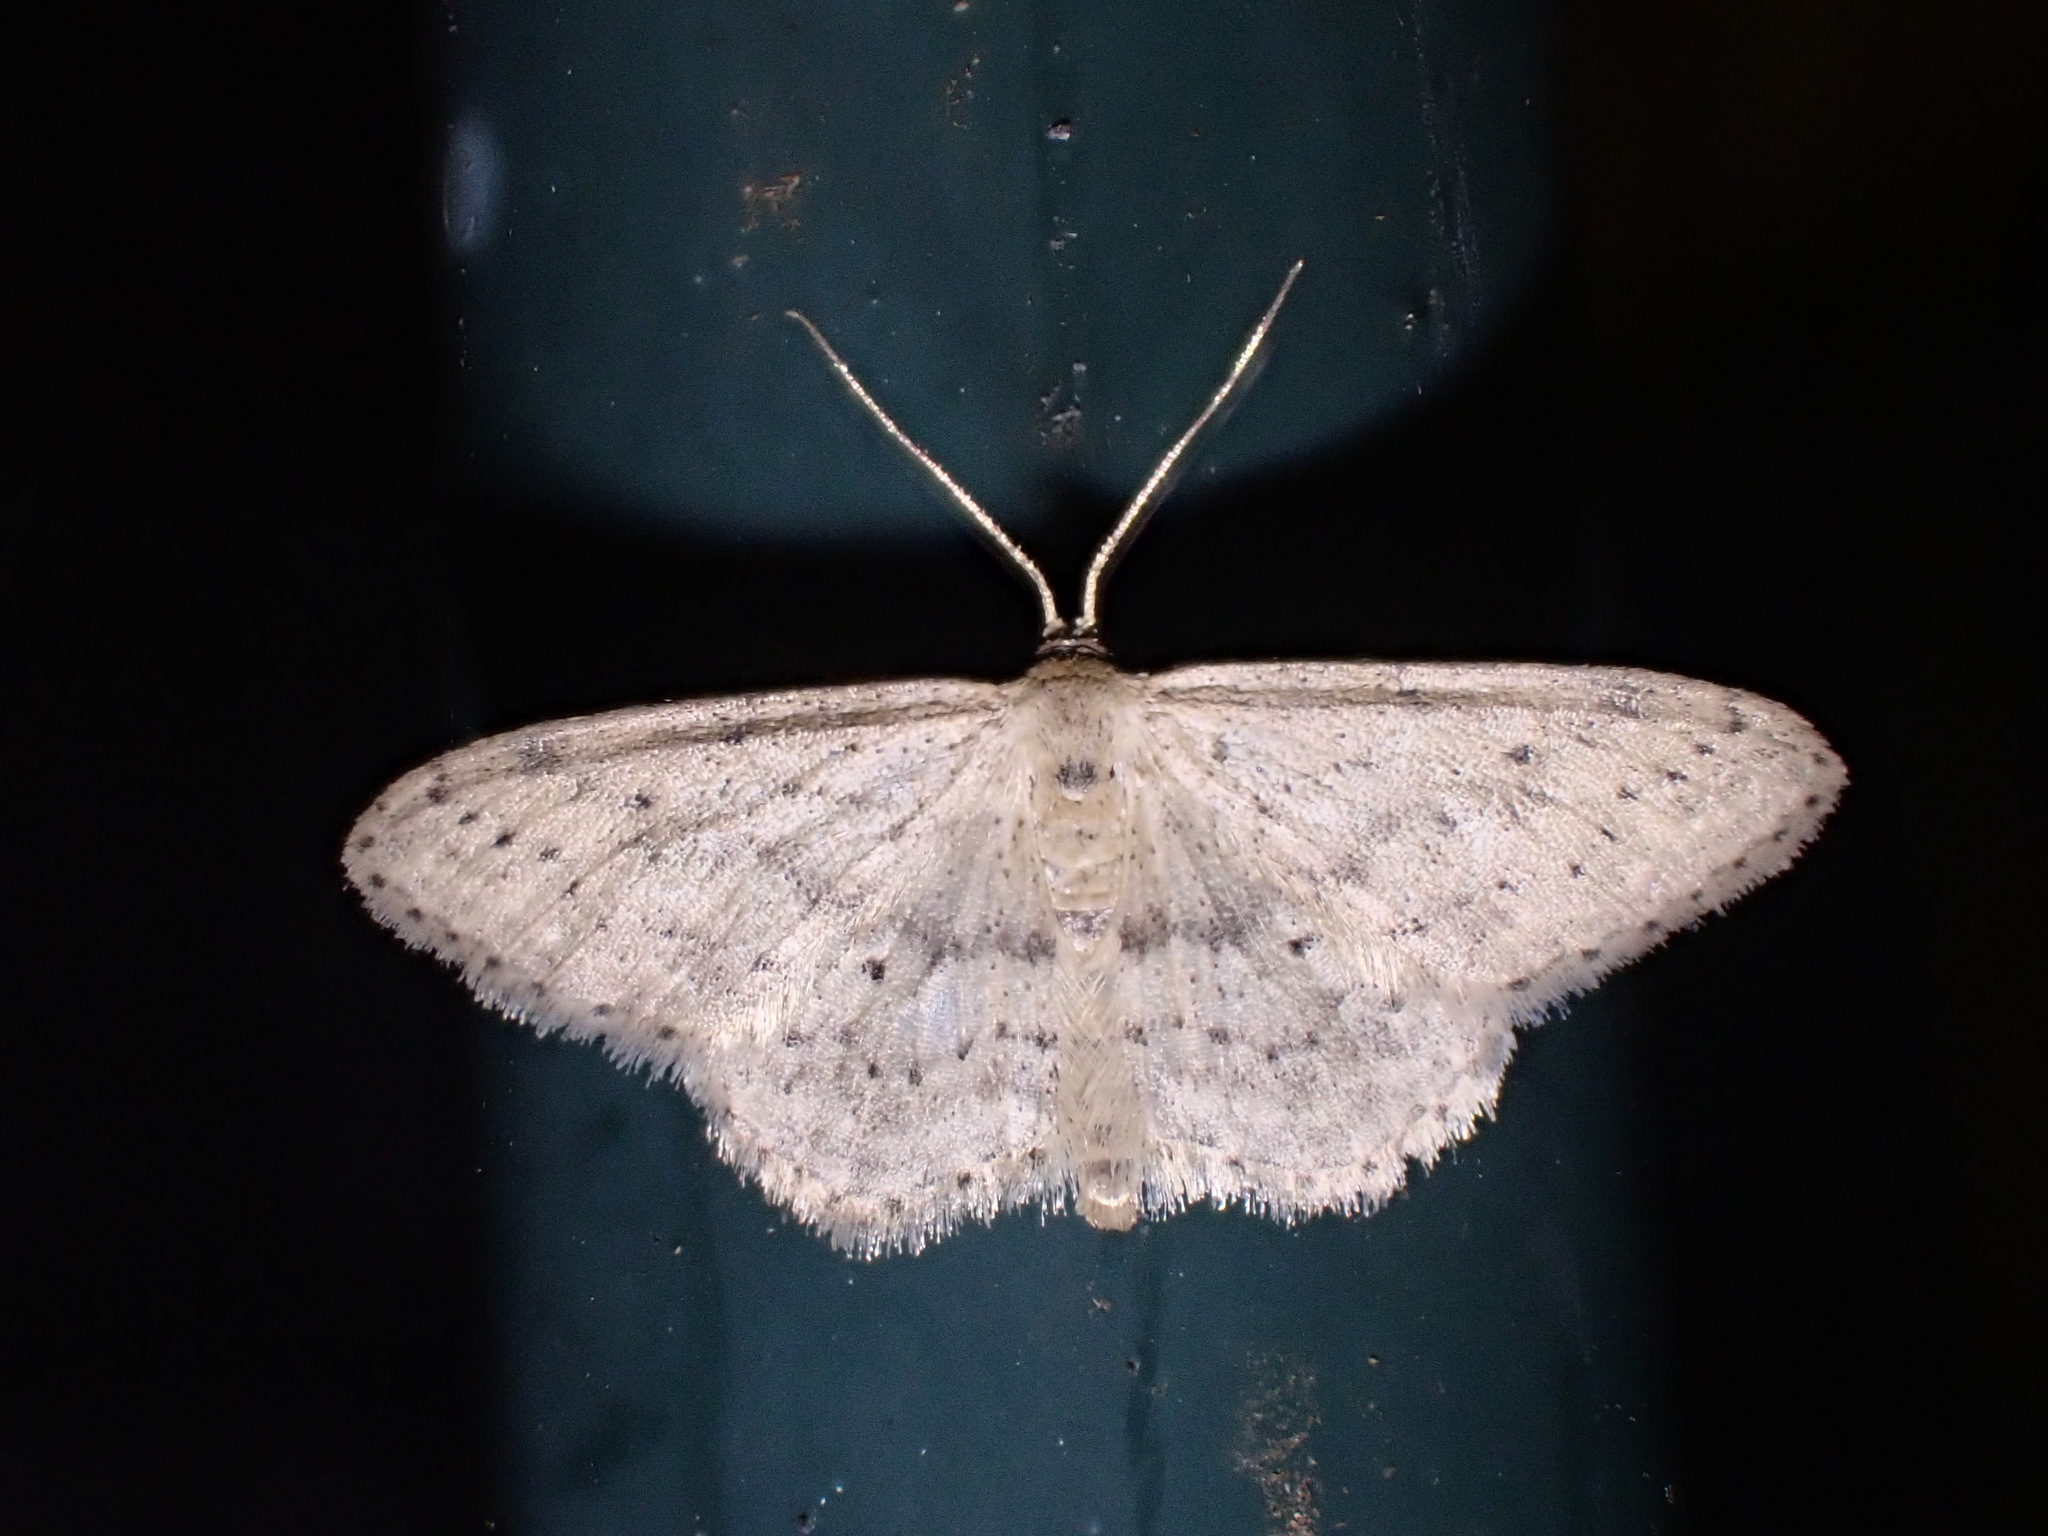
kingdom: Animalia
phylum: Arthropoda
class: Insecta
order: Lepidoptera
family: Geometridae
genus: Idaea
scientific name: Idaea seriata
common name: Small dusty wave
